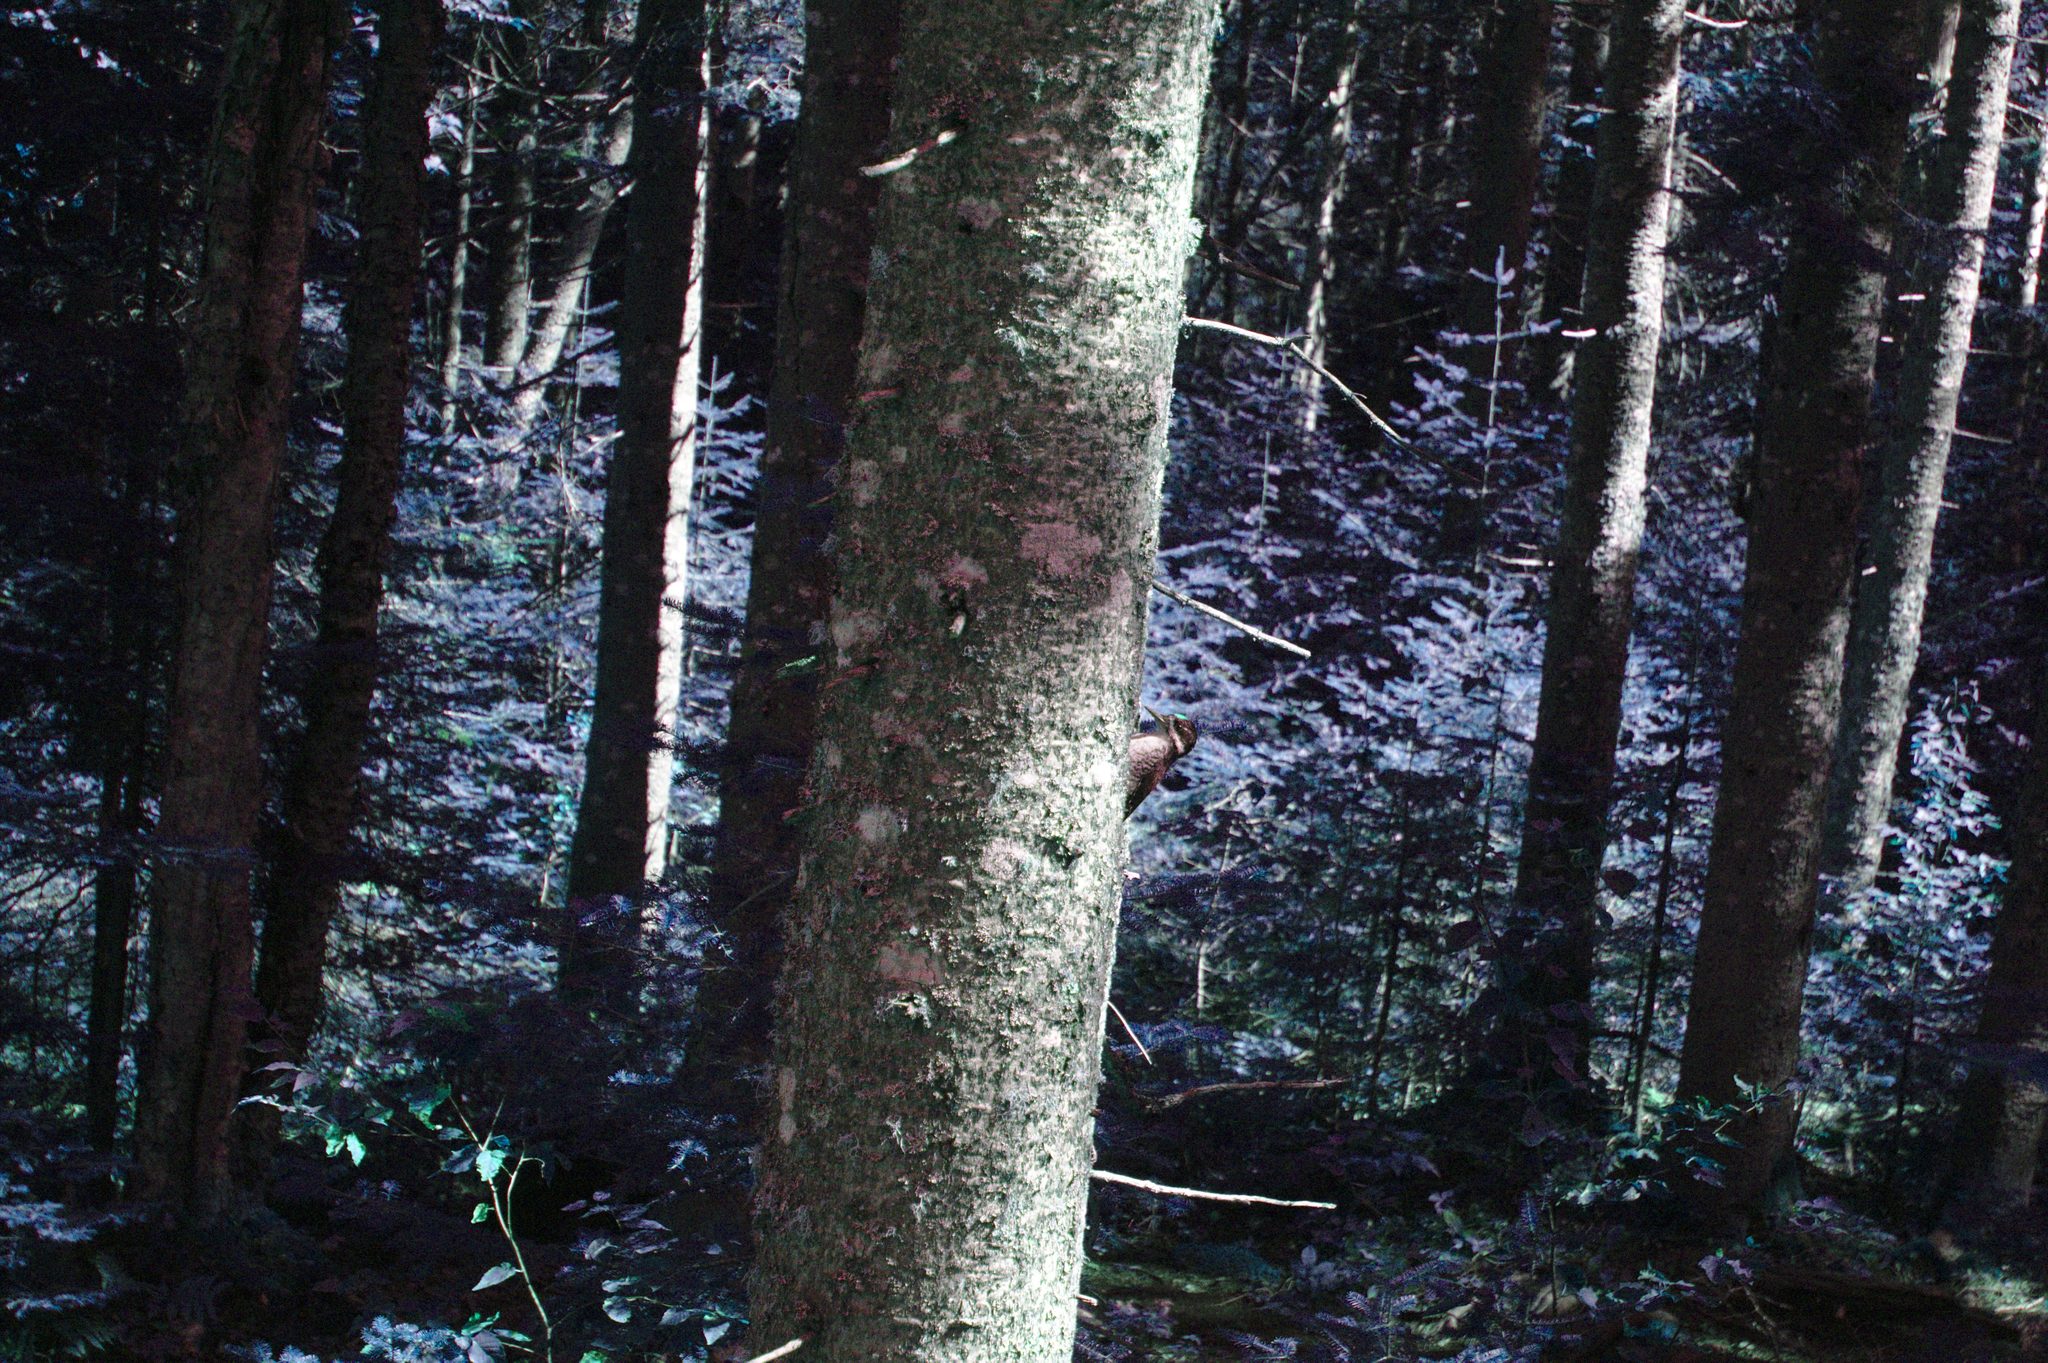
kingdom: Animalia
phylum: Chordata
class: Aves
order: Piciformes
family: Picidae
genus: Picoides
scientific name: Picoides arcticus
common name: Black-backed woodpecker
